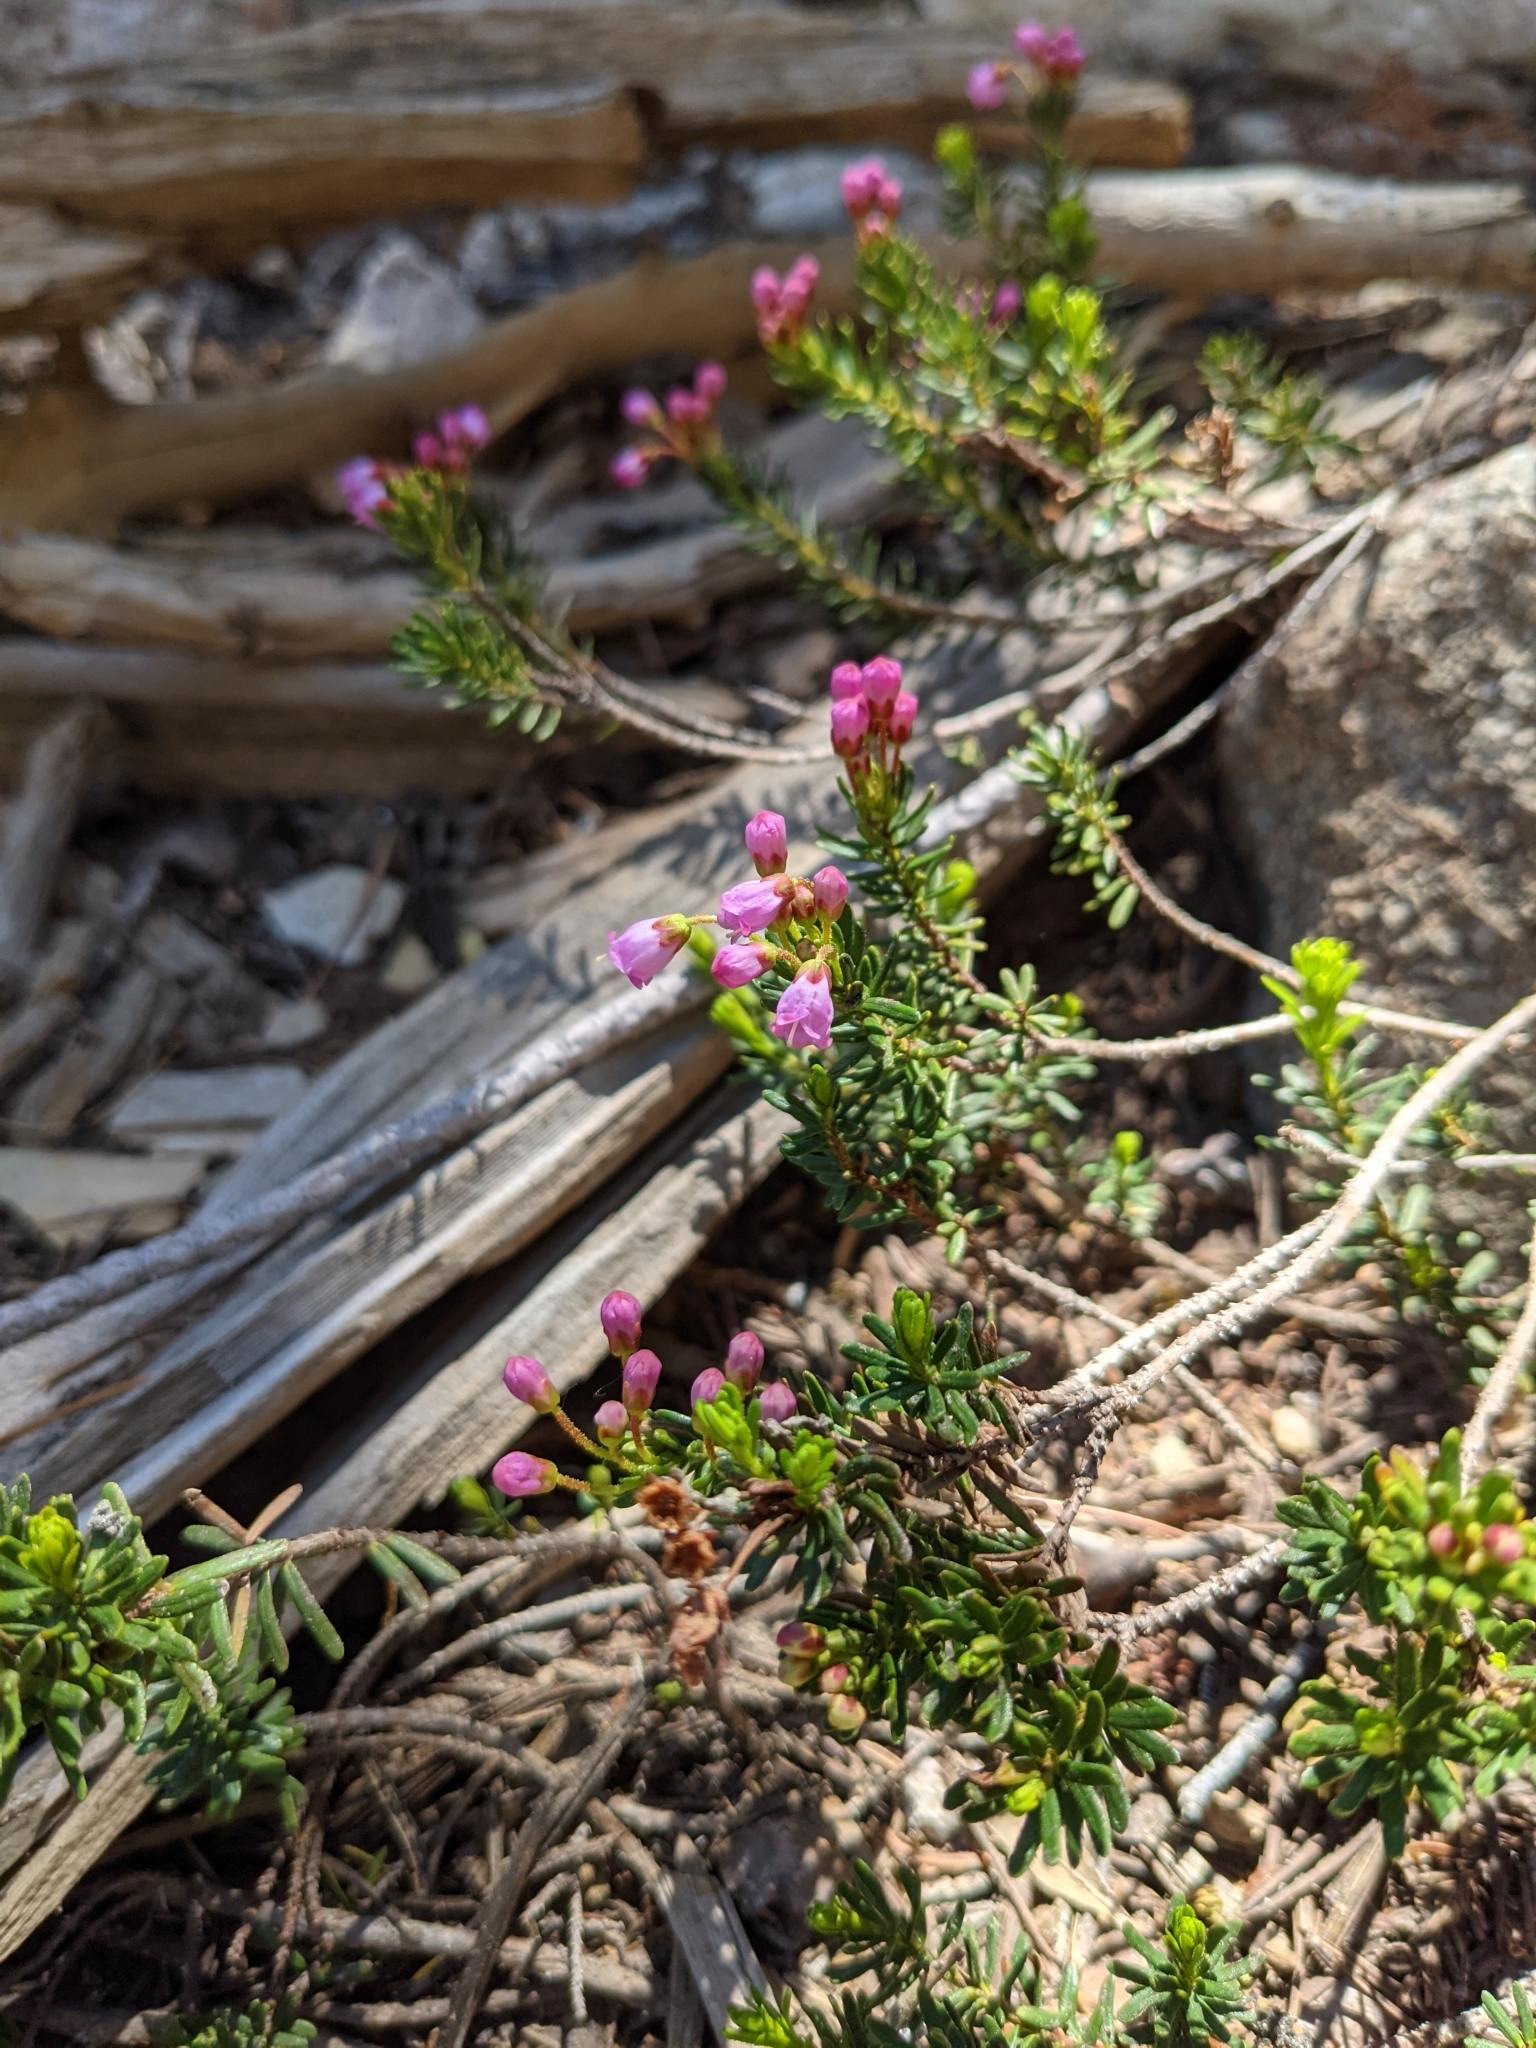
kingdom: Plantae
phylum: Tracheophyta
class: Magnoliopsida
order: Ericales
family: Ericaceae
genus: Phyllodoce
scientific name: Phyllodoce empetriformis
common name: Pink mountain heather
